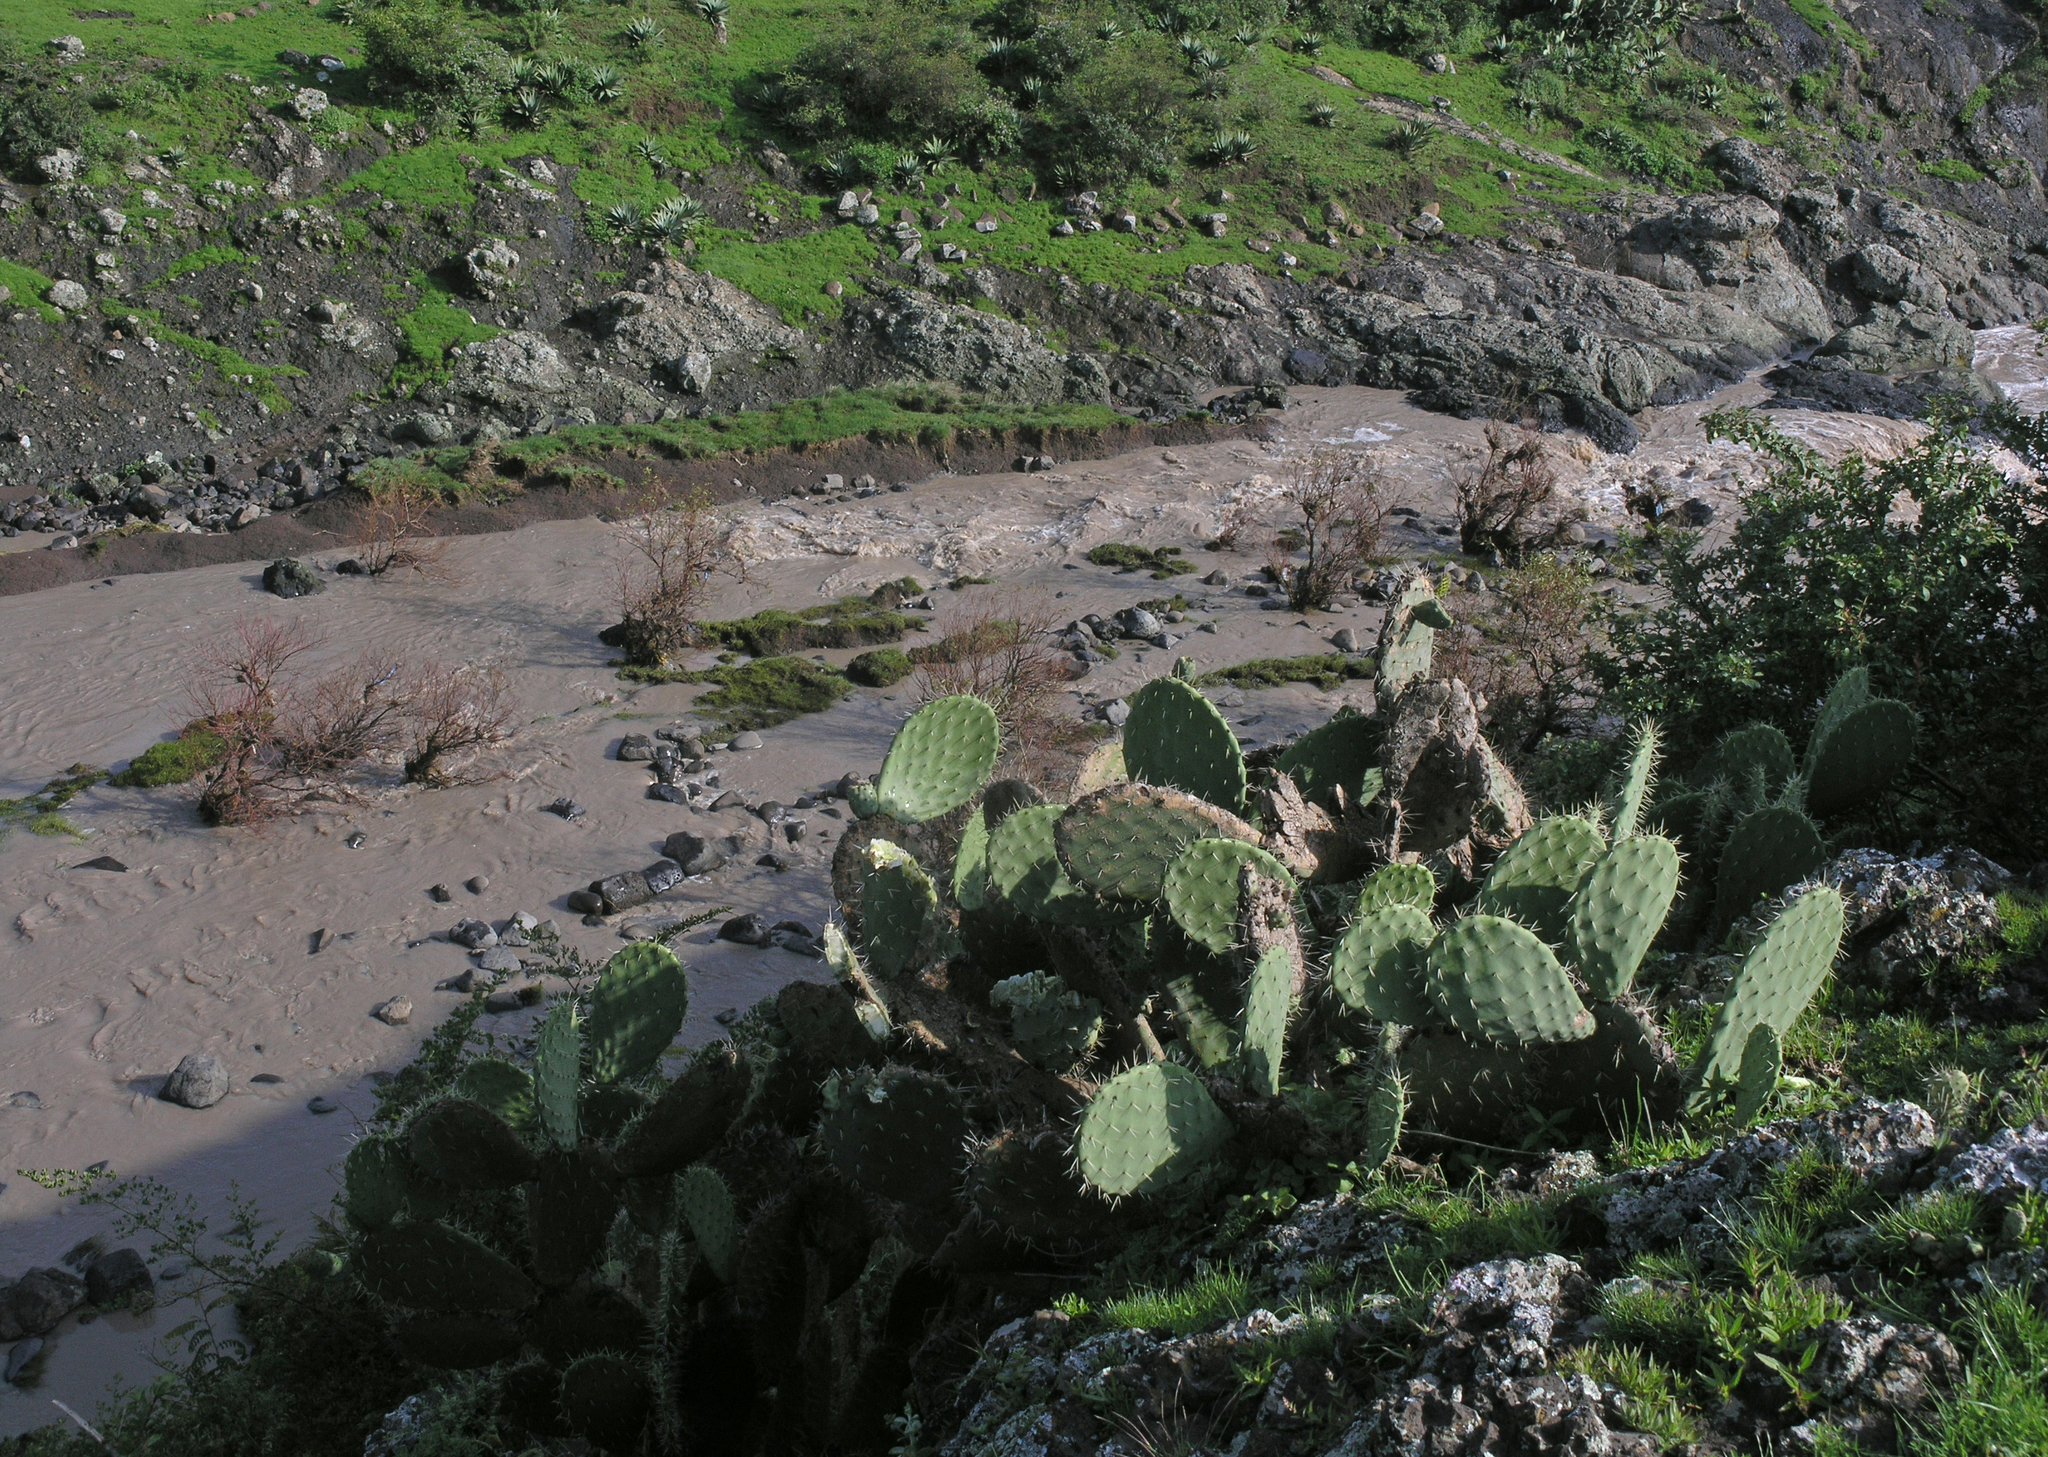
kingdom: Plantae
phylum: Tracheophyta
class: Magnoliopsida
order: Caryophyllales
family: Cactaceae
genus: Opuntia
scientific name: Opuntia ficus-indica
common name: Barbary fig
